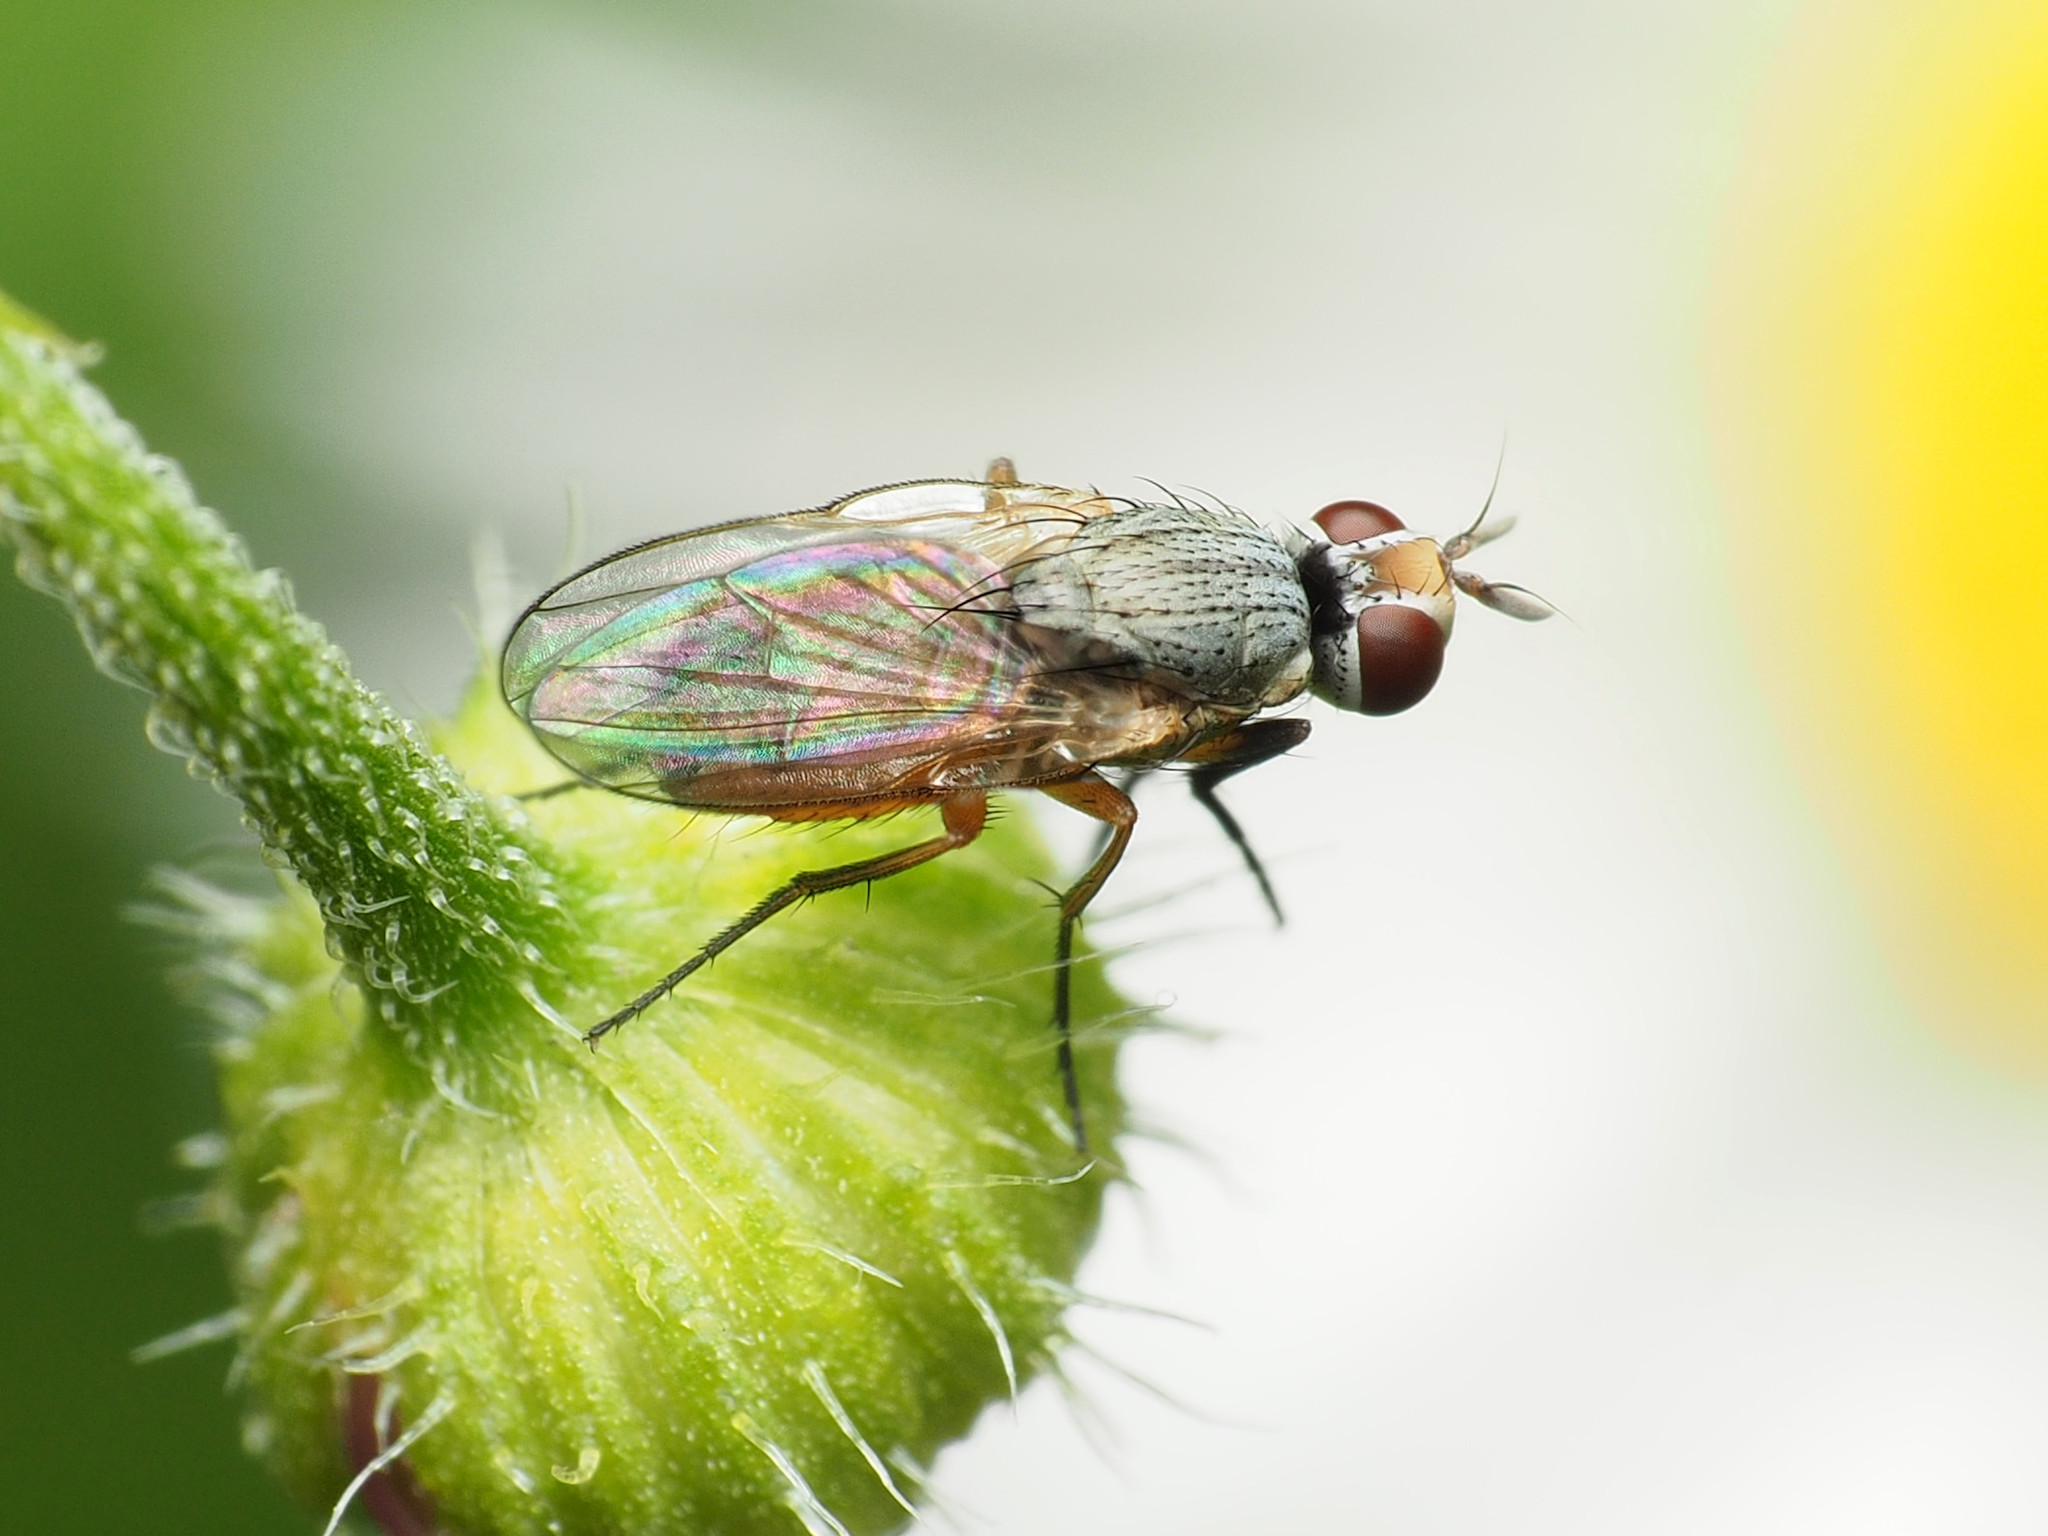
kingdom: Animalia
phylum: Arthropoda
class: Insecta
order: Diptera
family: Muscidae
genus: Atherigona
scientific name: Atherigona reversura
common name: Bermudagrass stem maggot
